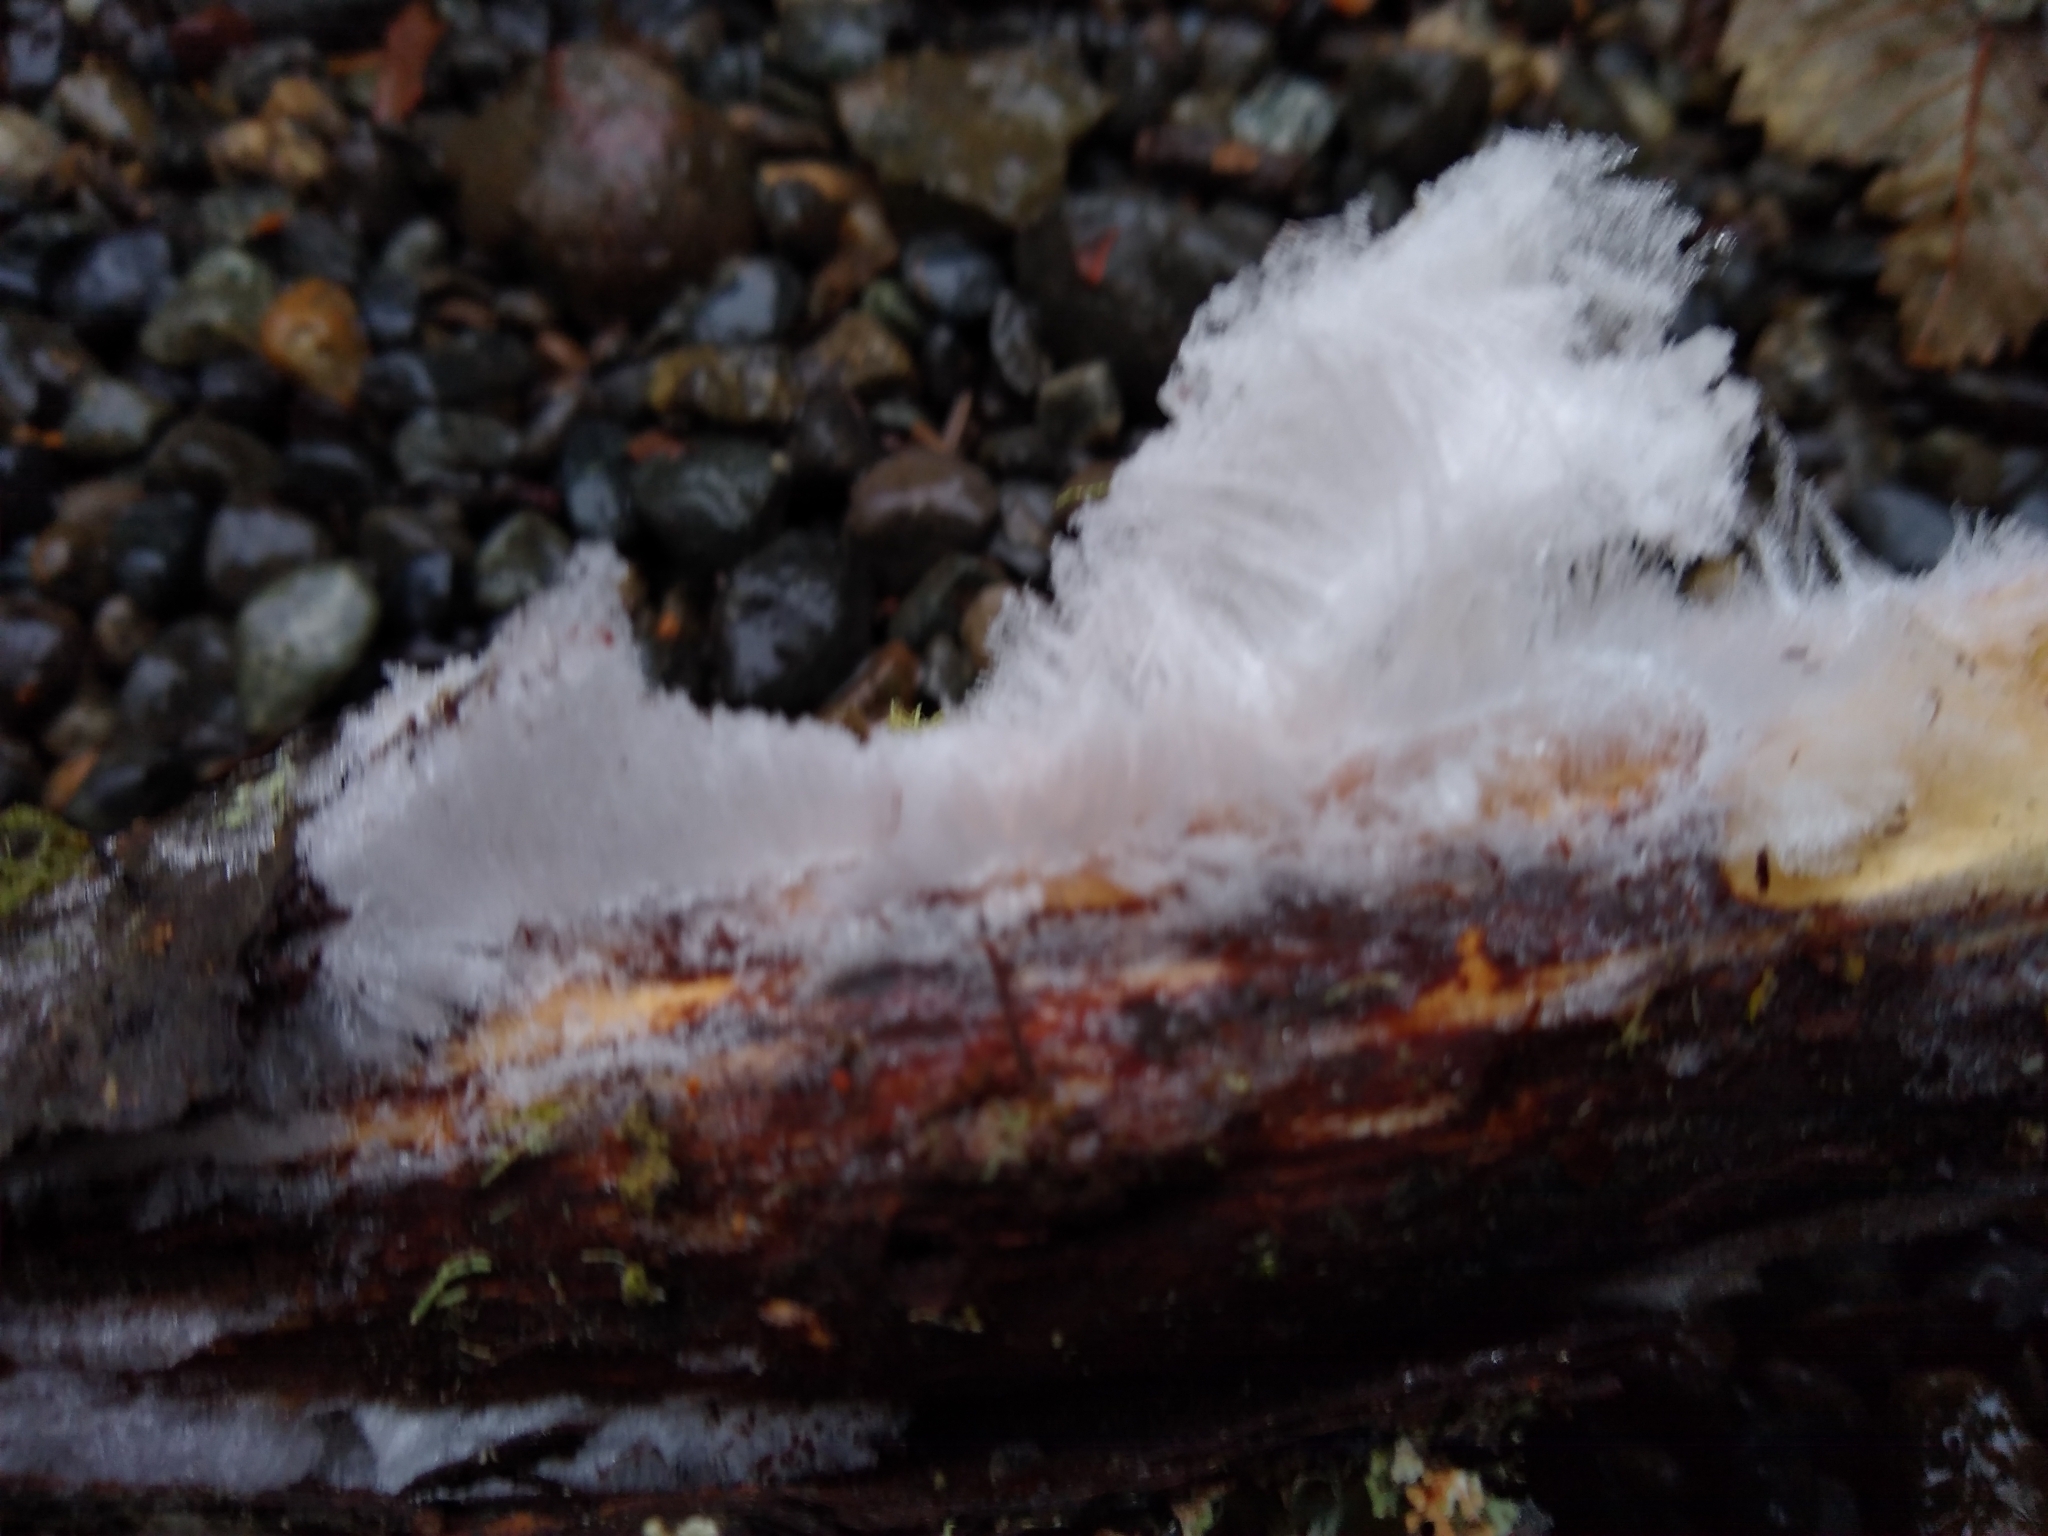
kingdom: Fungi
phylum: Basidiomycota
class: Agaricomycetes
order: Auriculariales
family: Auriculariaceae
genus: Exidiopsis
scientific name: Exidiopsis effusa
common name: Hair ice crust
